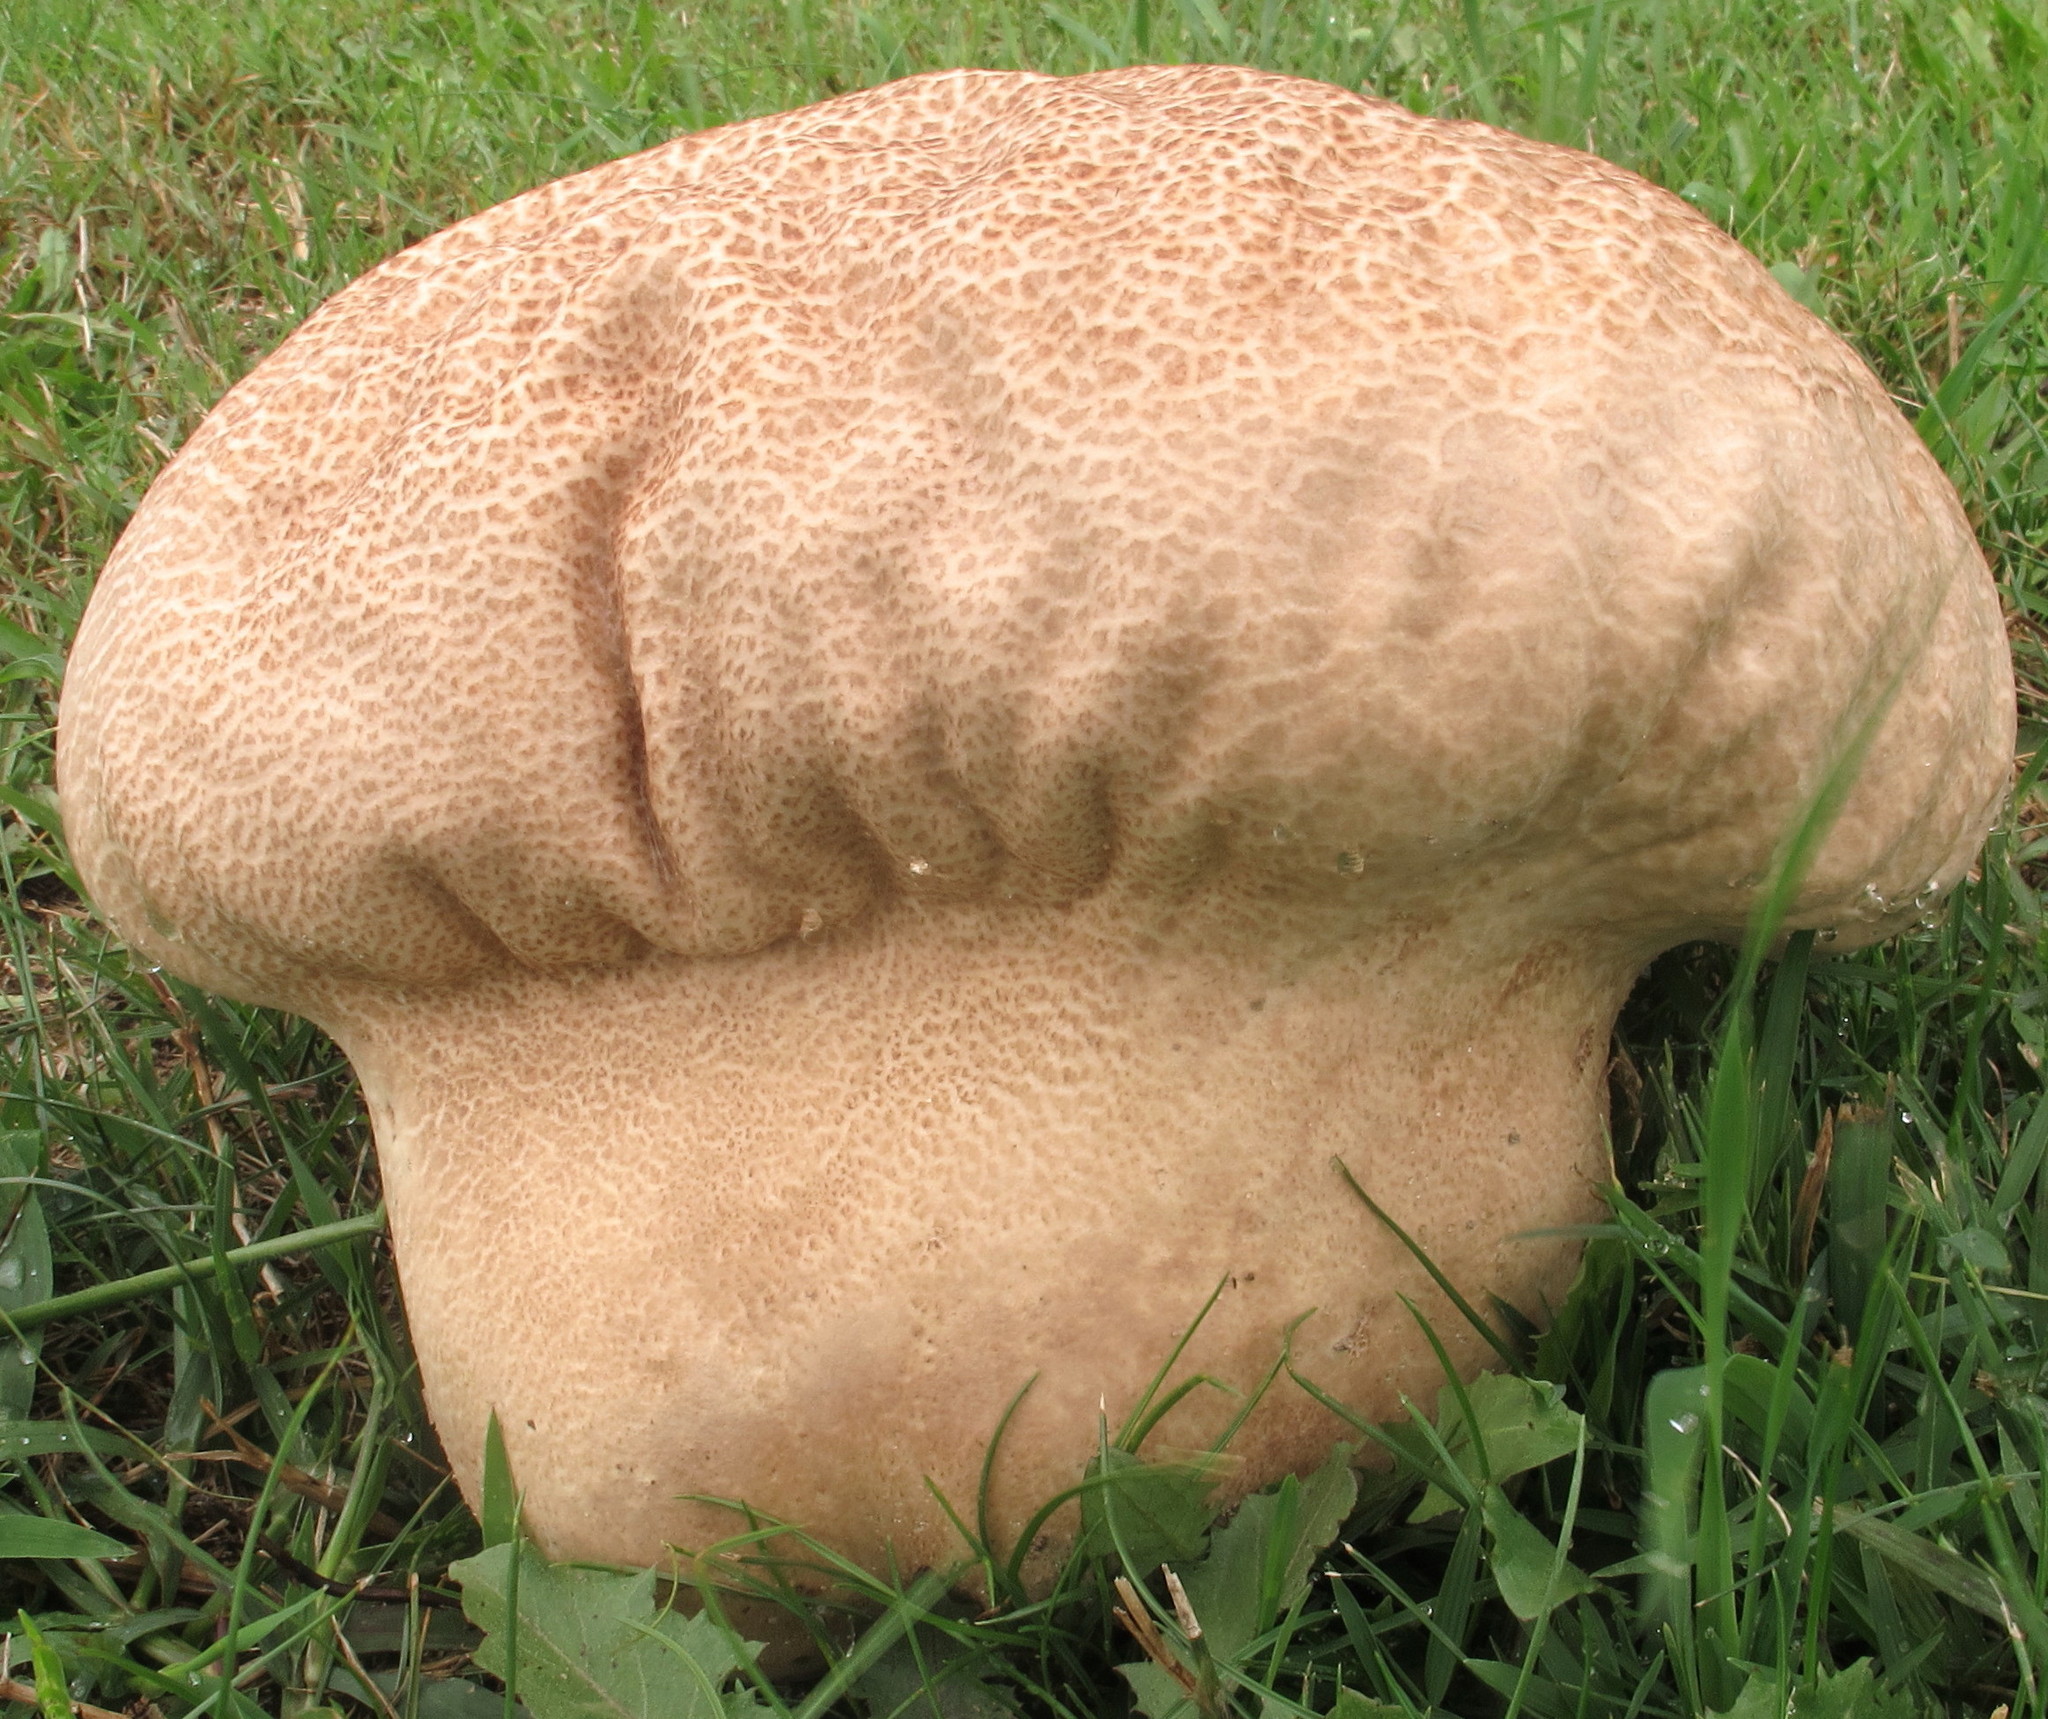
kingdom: Fungi
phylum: Basidiomycota
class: Agaricomycetes
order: Agaricales
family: Lycoperdaceae
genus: Calvatia
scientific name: Calvatia craniiformis
